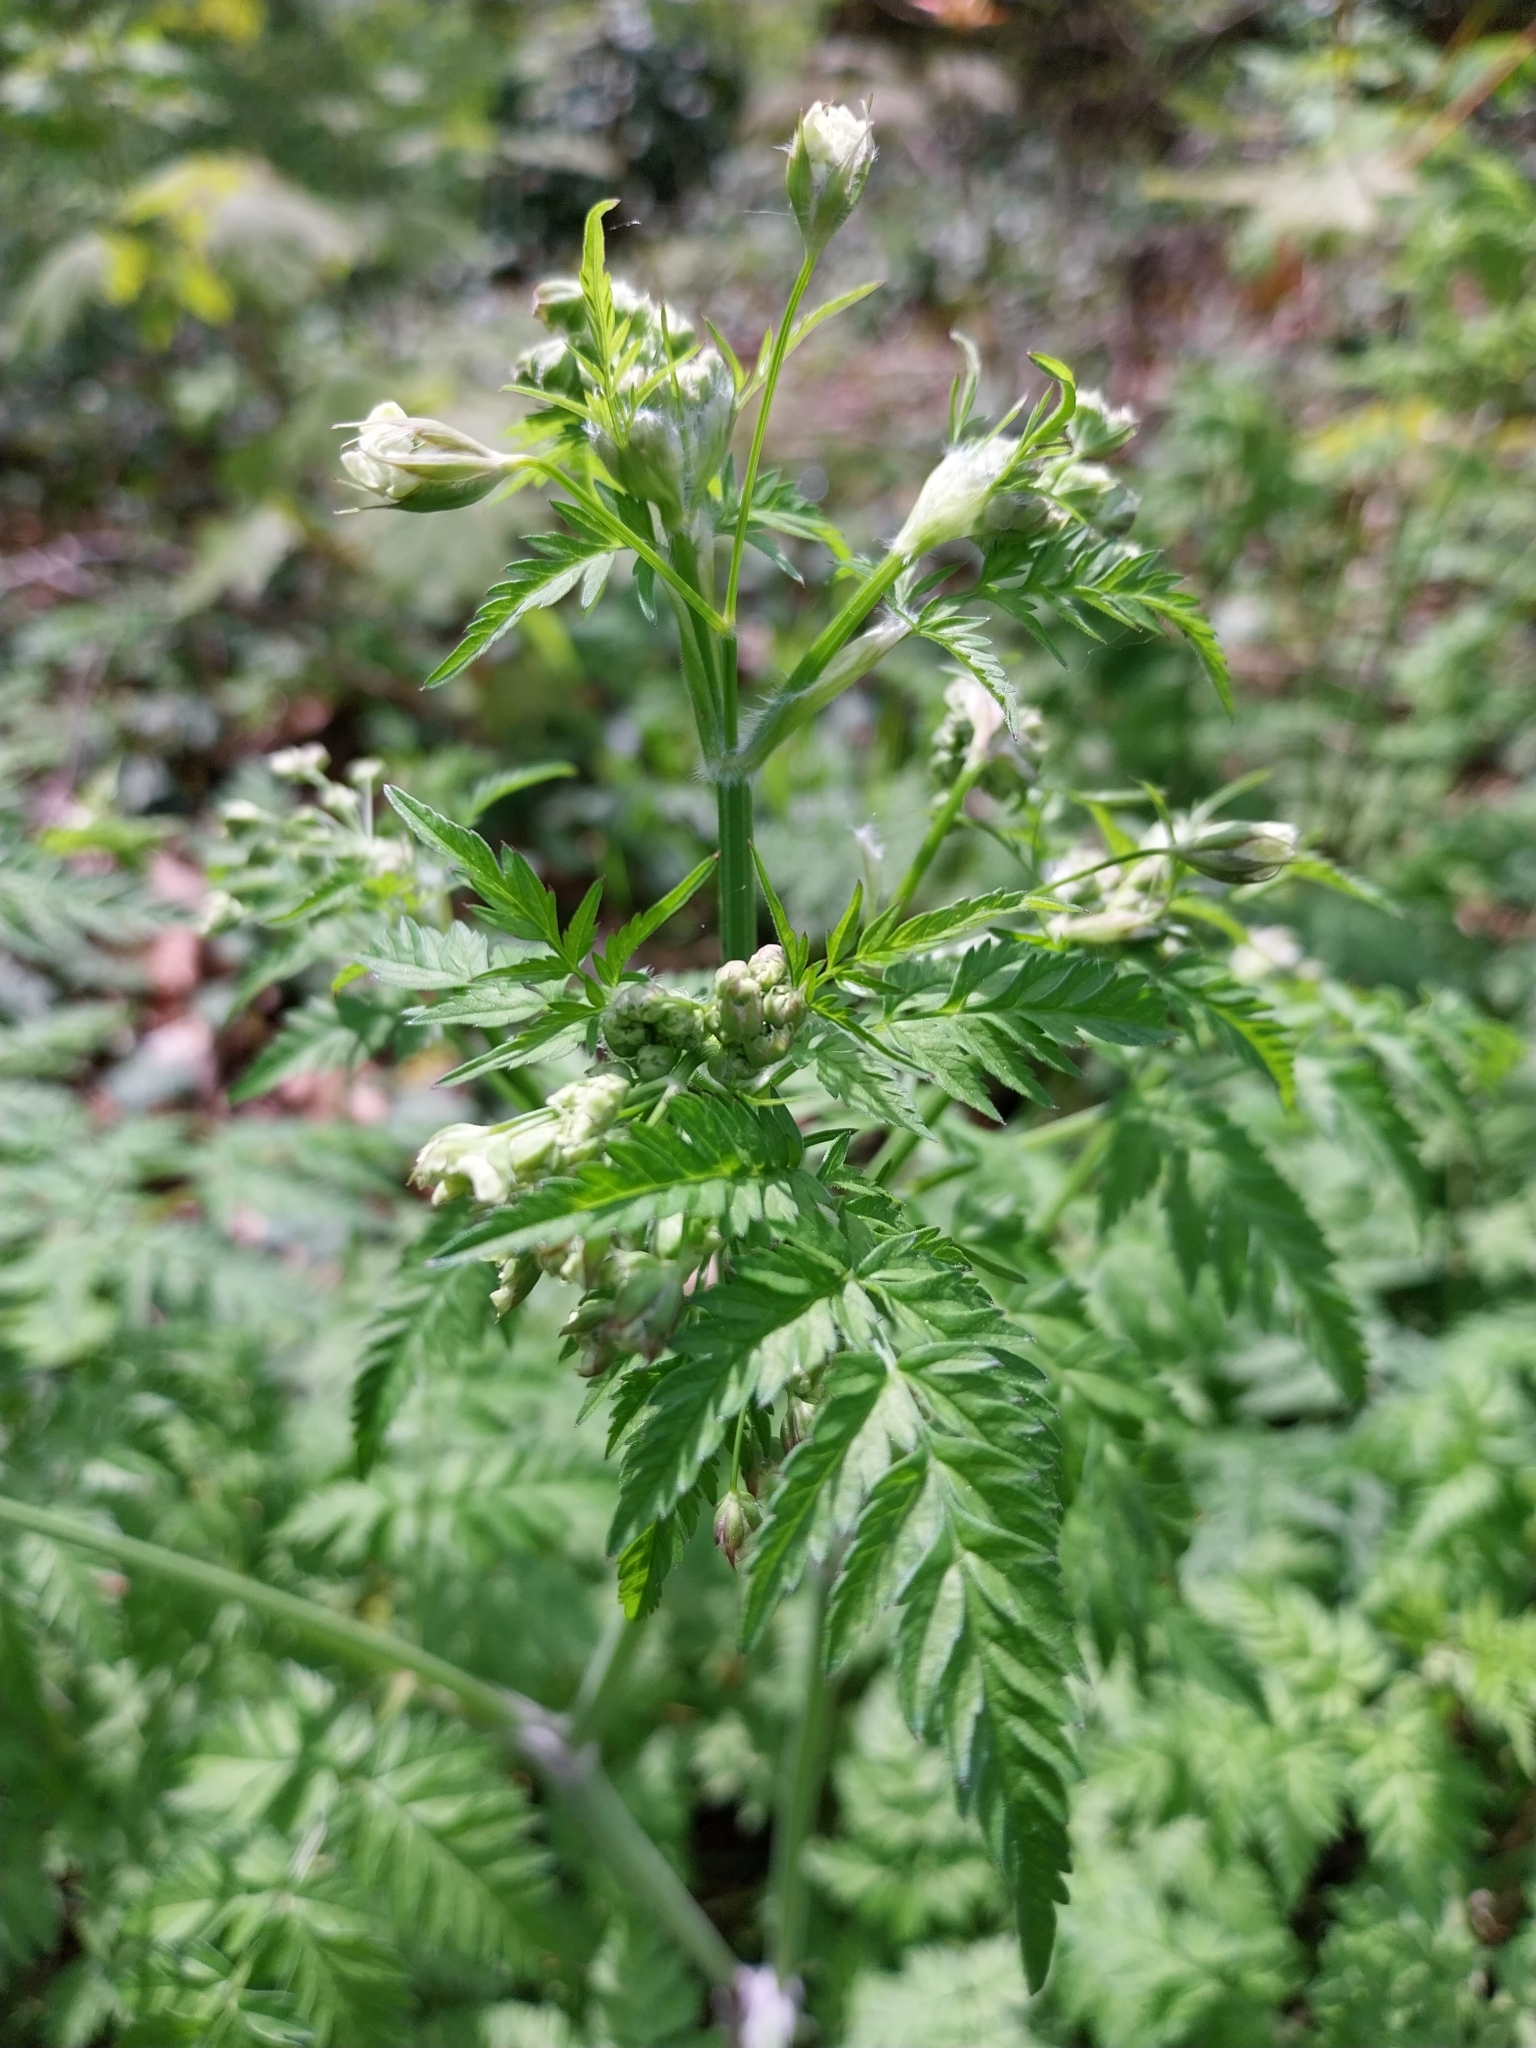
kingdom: Plantae
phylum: Tracheophyta
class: Magnoliopsida
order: Apiales
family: Apiaceae
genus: Anthriscus
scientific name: Anthriscus sylvestris
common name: Cow parsley
